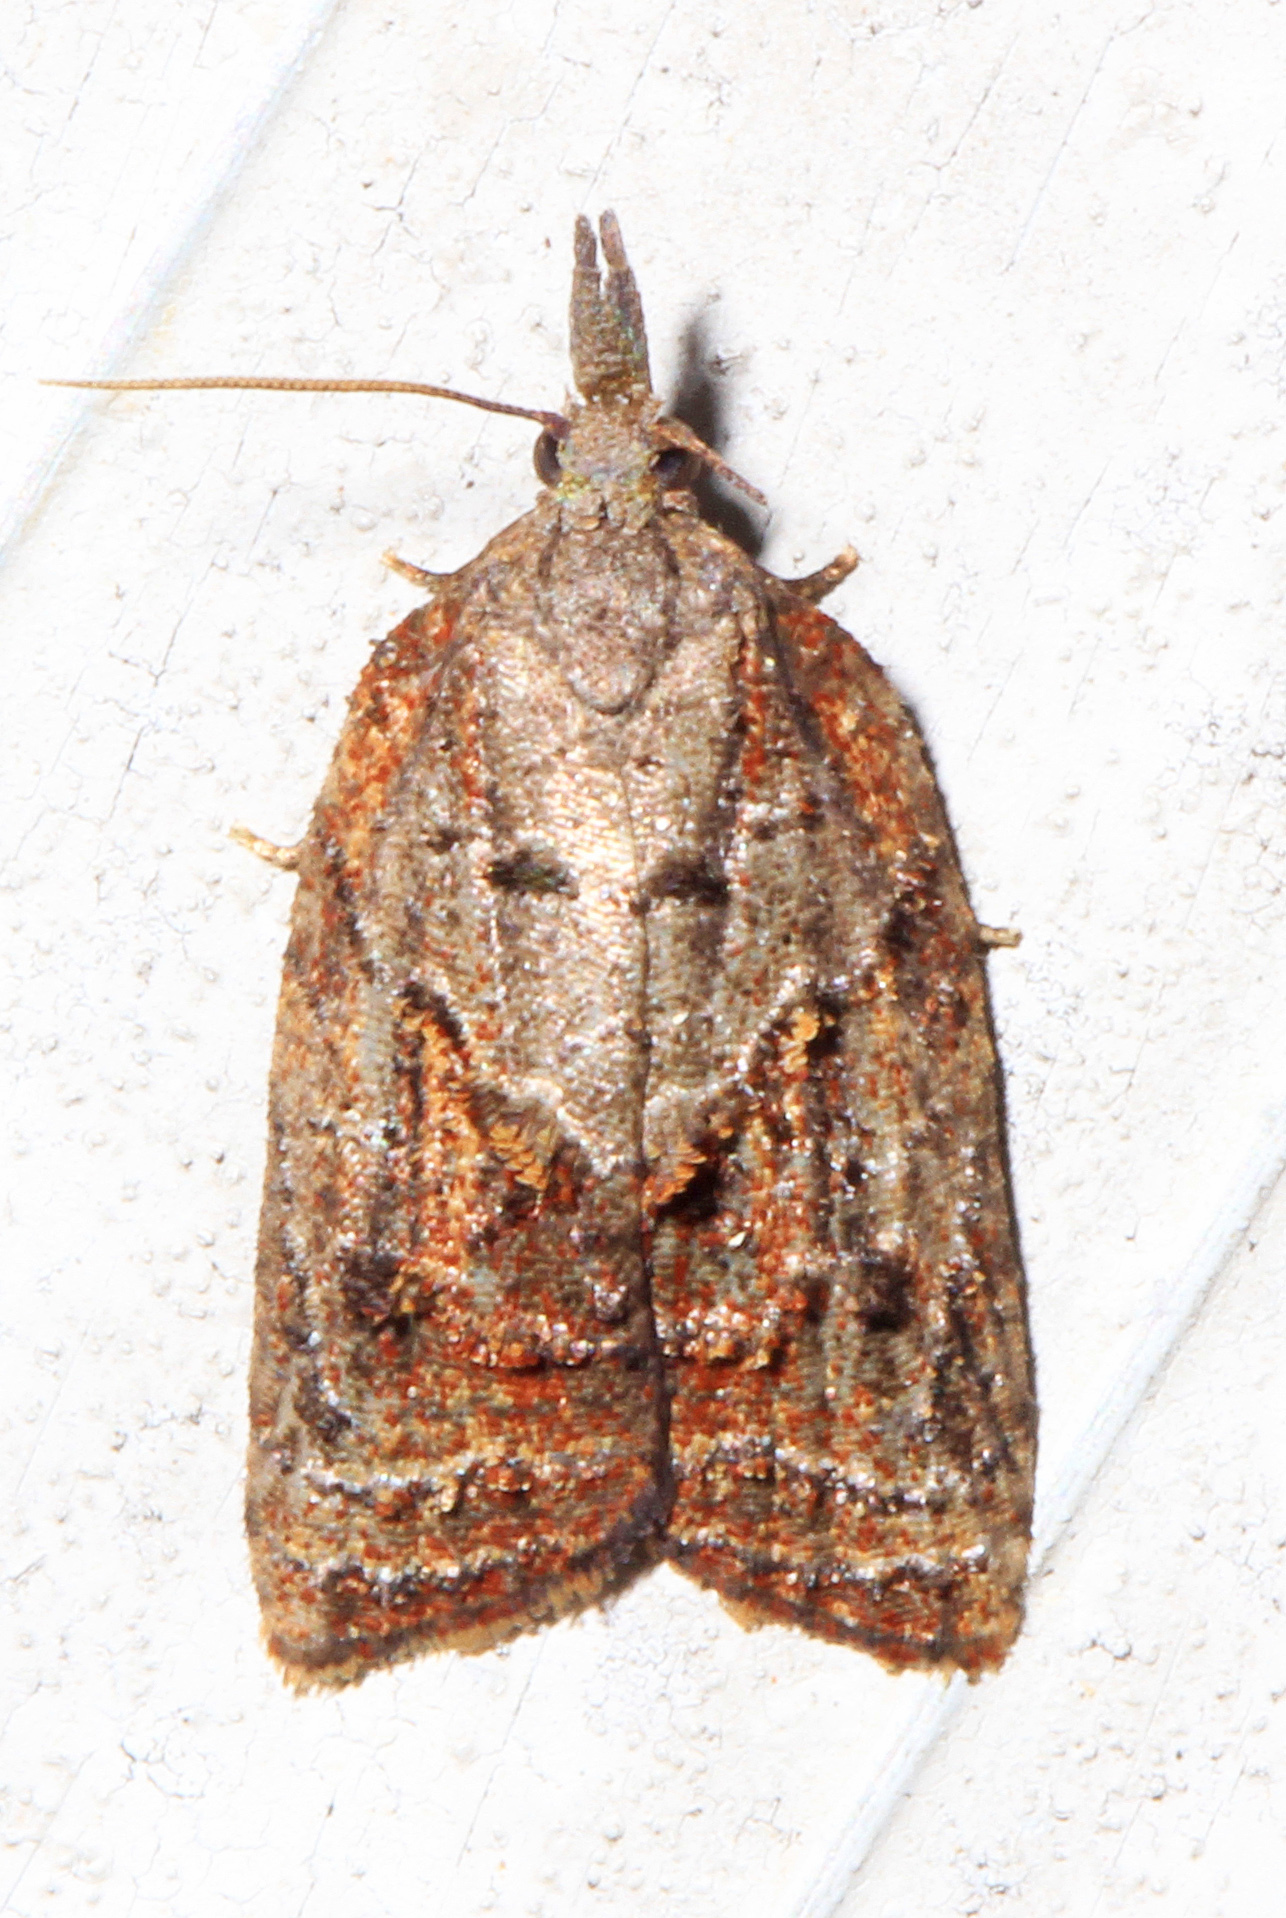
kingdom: Animalia
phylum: Arthropoda
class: Insecta
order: Lepidoptera
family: Tortricidae
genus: Platynota
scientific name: Platynota idaeusalis
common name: Tufted apple bud moth
